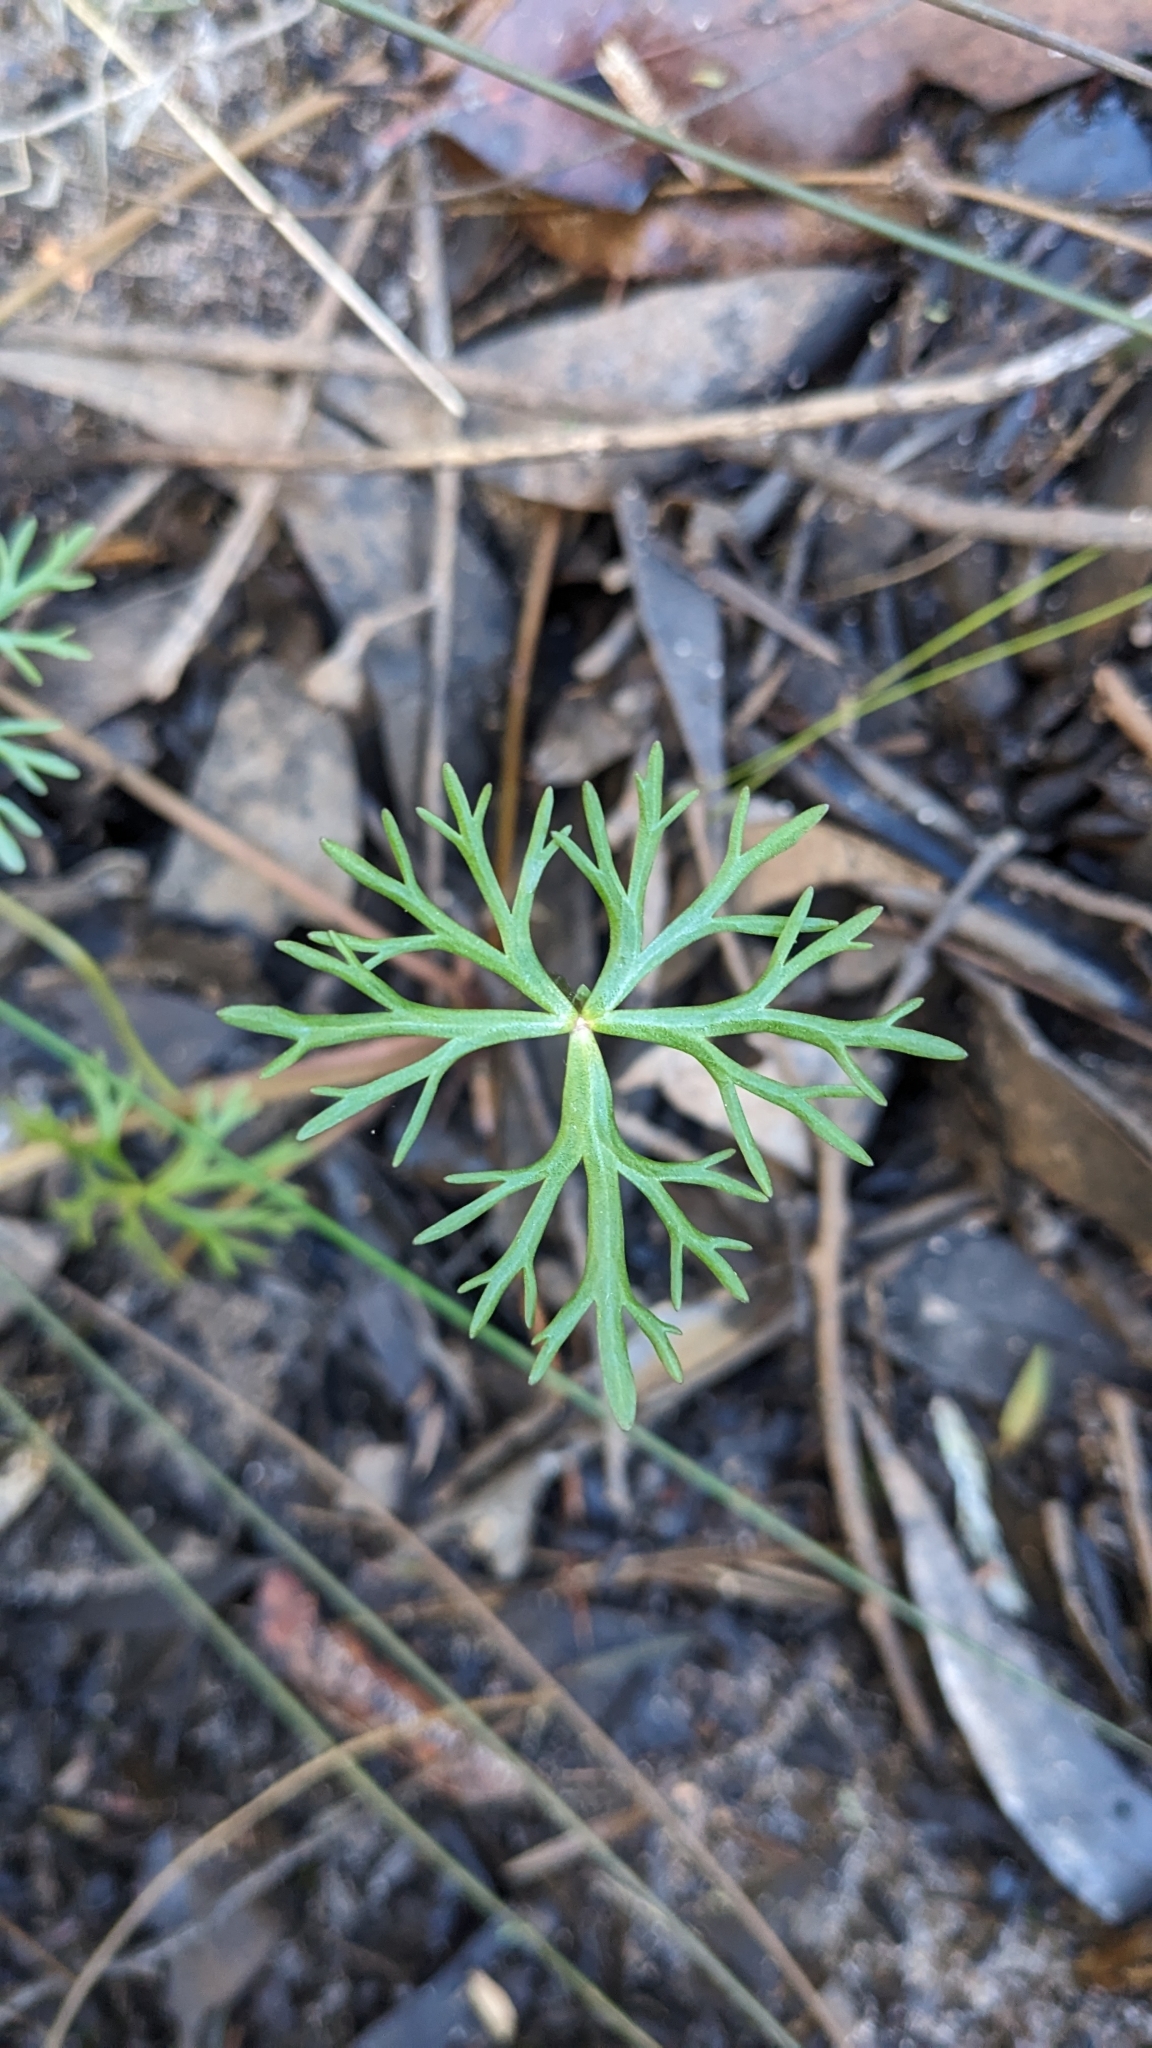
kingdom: Plantae
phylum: Tracheophyta
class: Magnoliopsida
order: Ranunculales
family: Ranunculaceae
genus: Ranunculus
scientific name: Ranunculus inundatus
